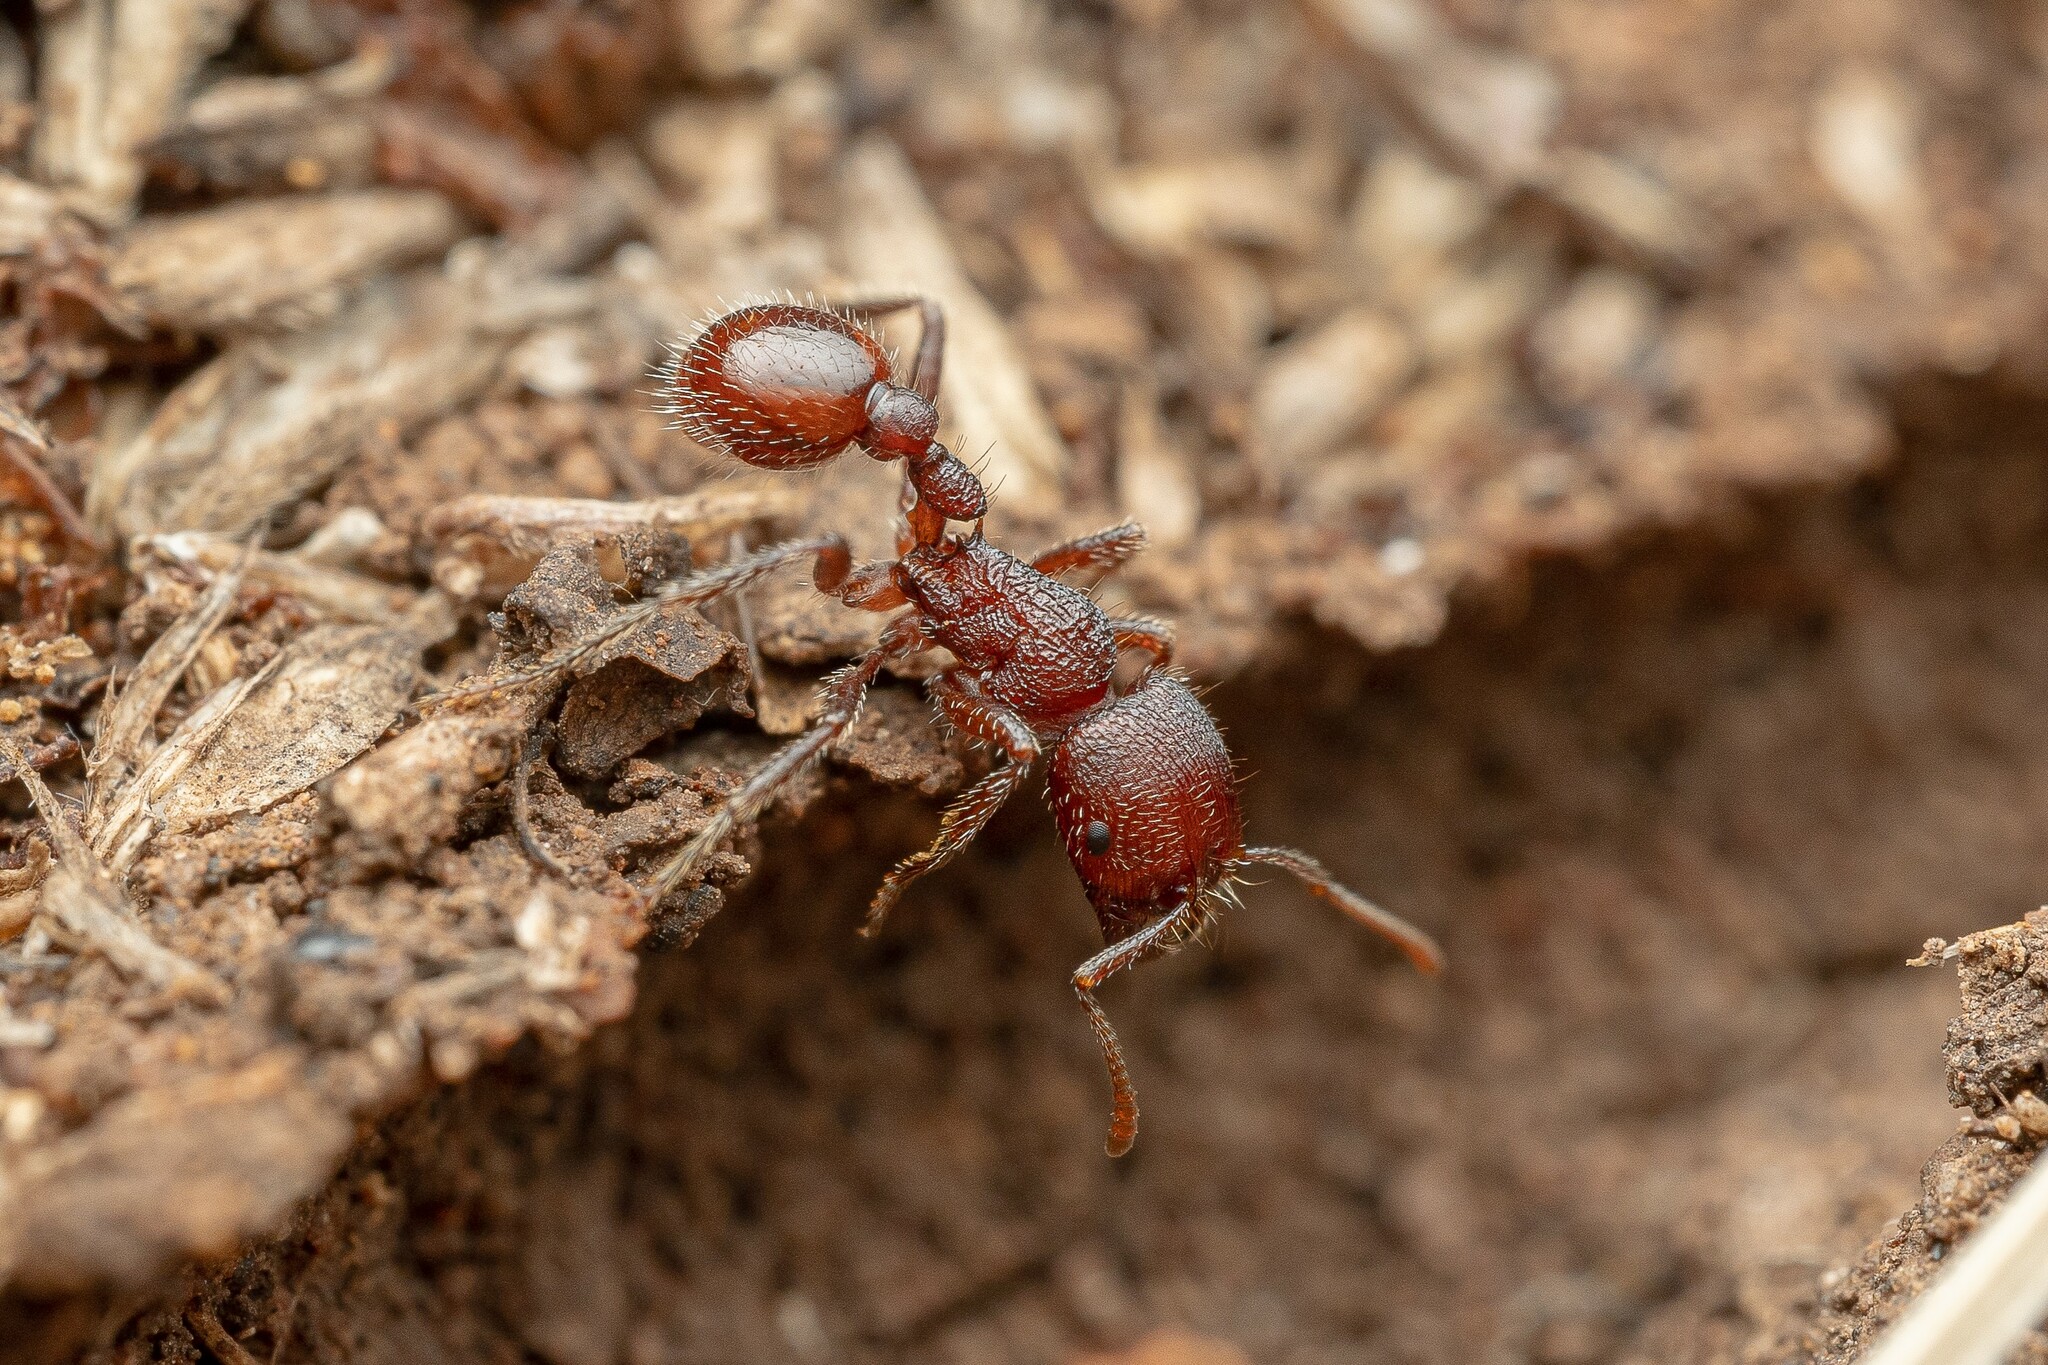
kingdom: Animalia
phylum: Arthropoda
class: Insecta
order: Hymenoptera
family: Formicidae
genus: Pogonomyrmex
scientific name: Pogonomyrmex huachucanus
